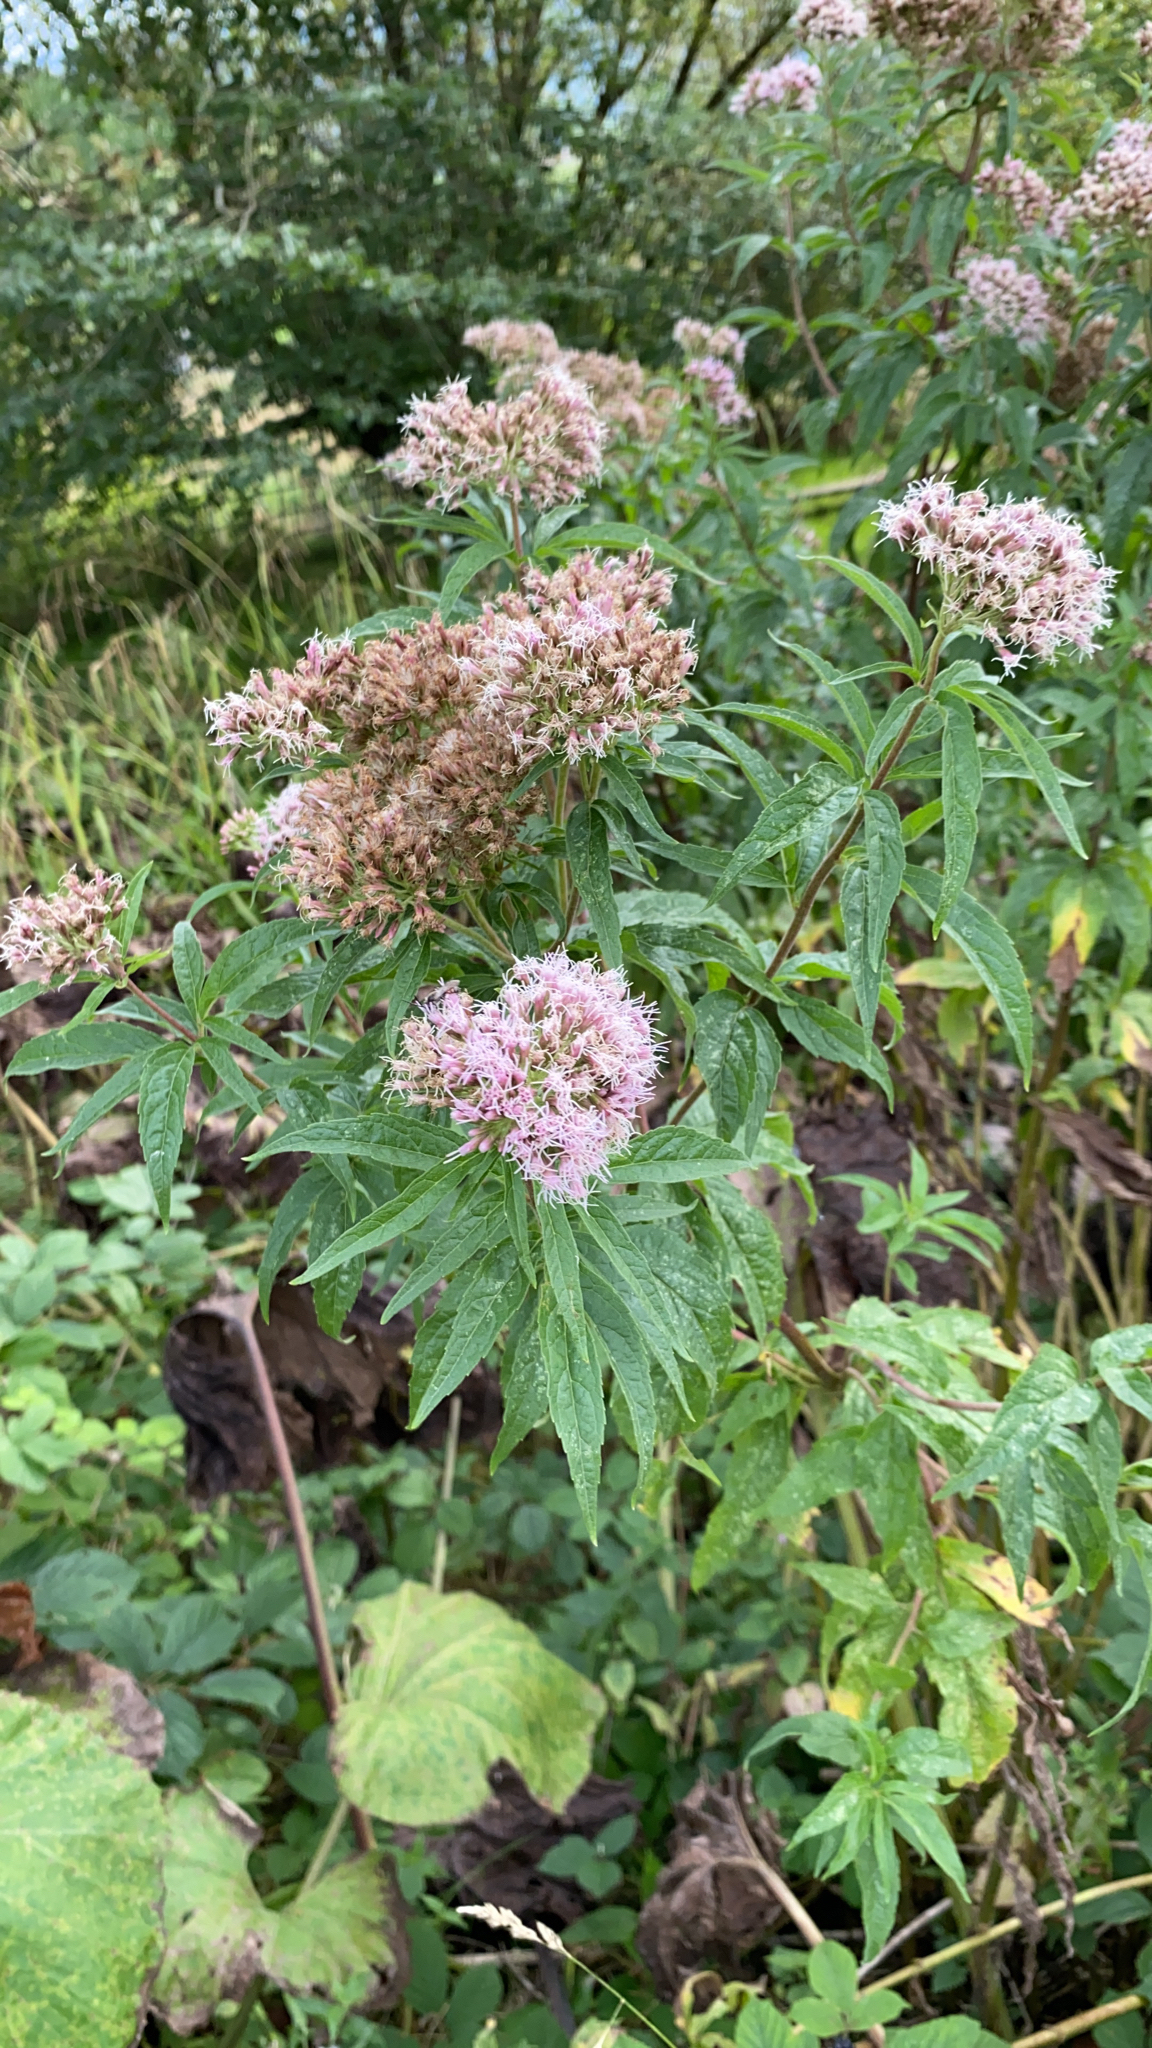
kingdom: Plantae
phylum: Tracheophyta
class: Magnoliopsida
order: Asterales
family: Asteraceae
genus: Eupatorium
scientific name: Eupatorium cannabinum
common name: Hemp-agrimony
